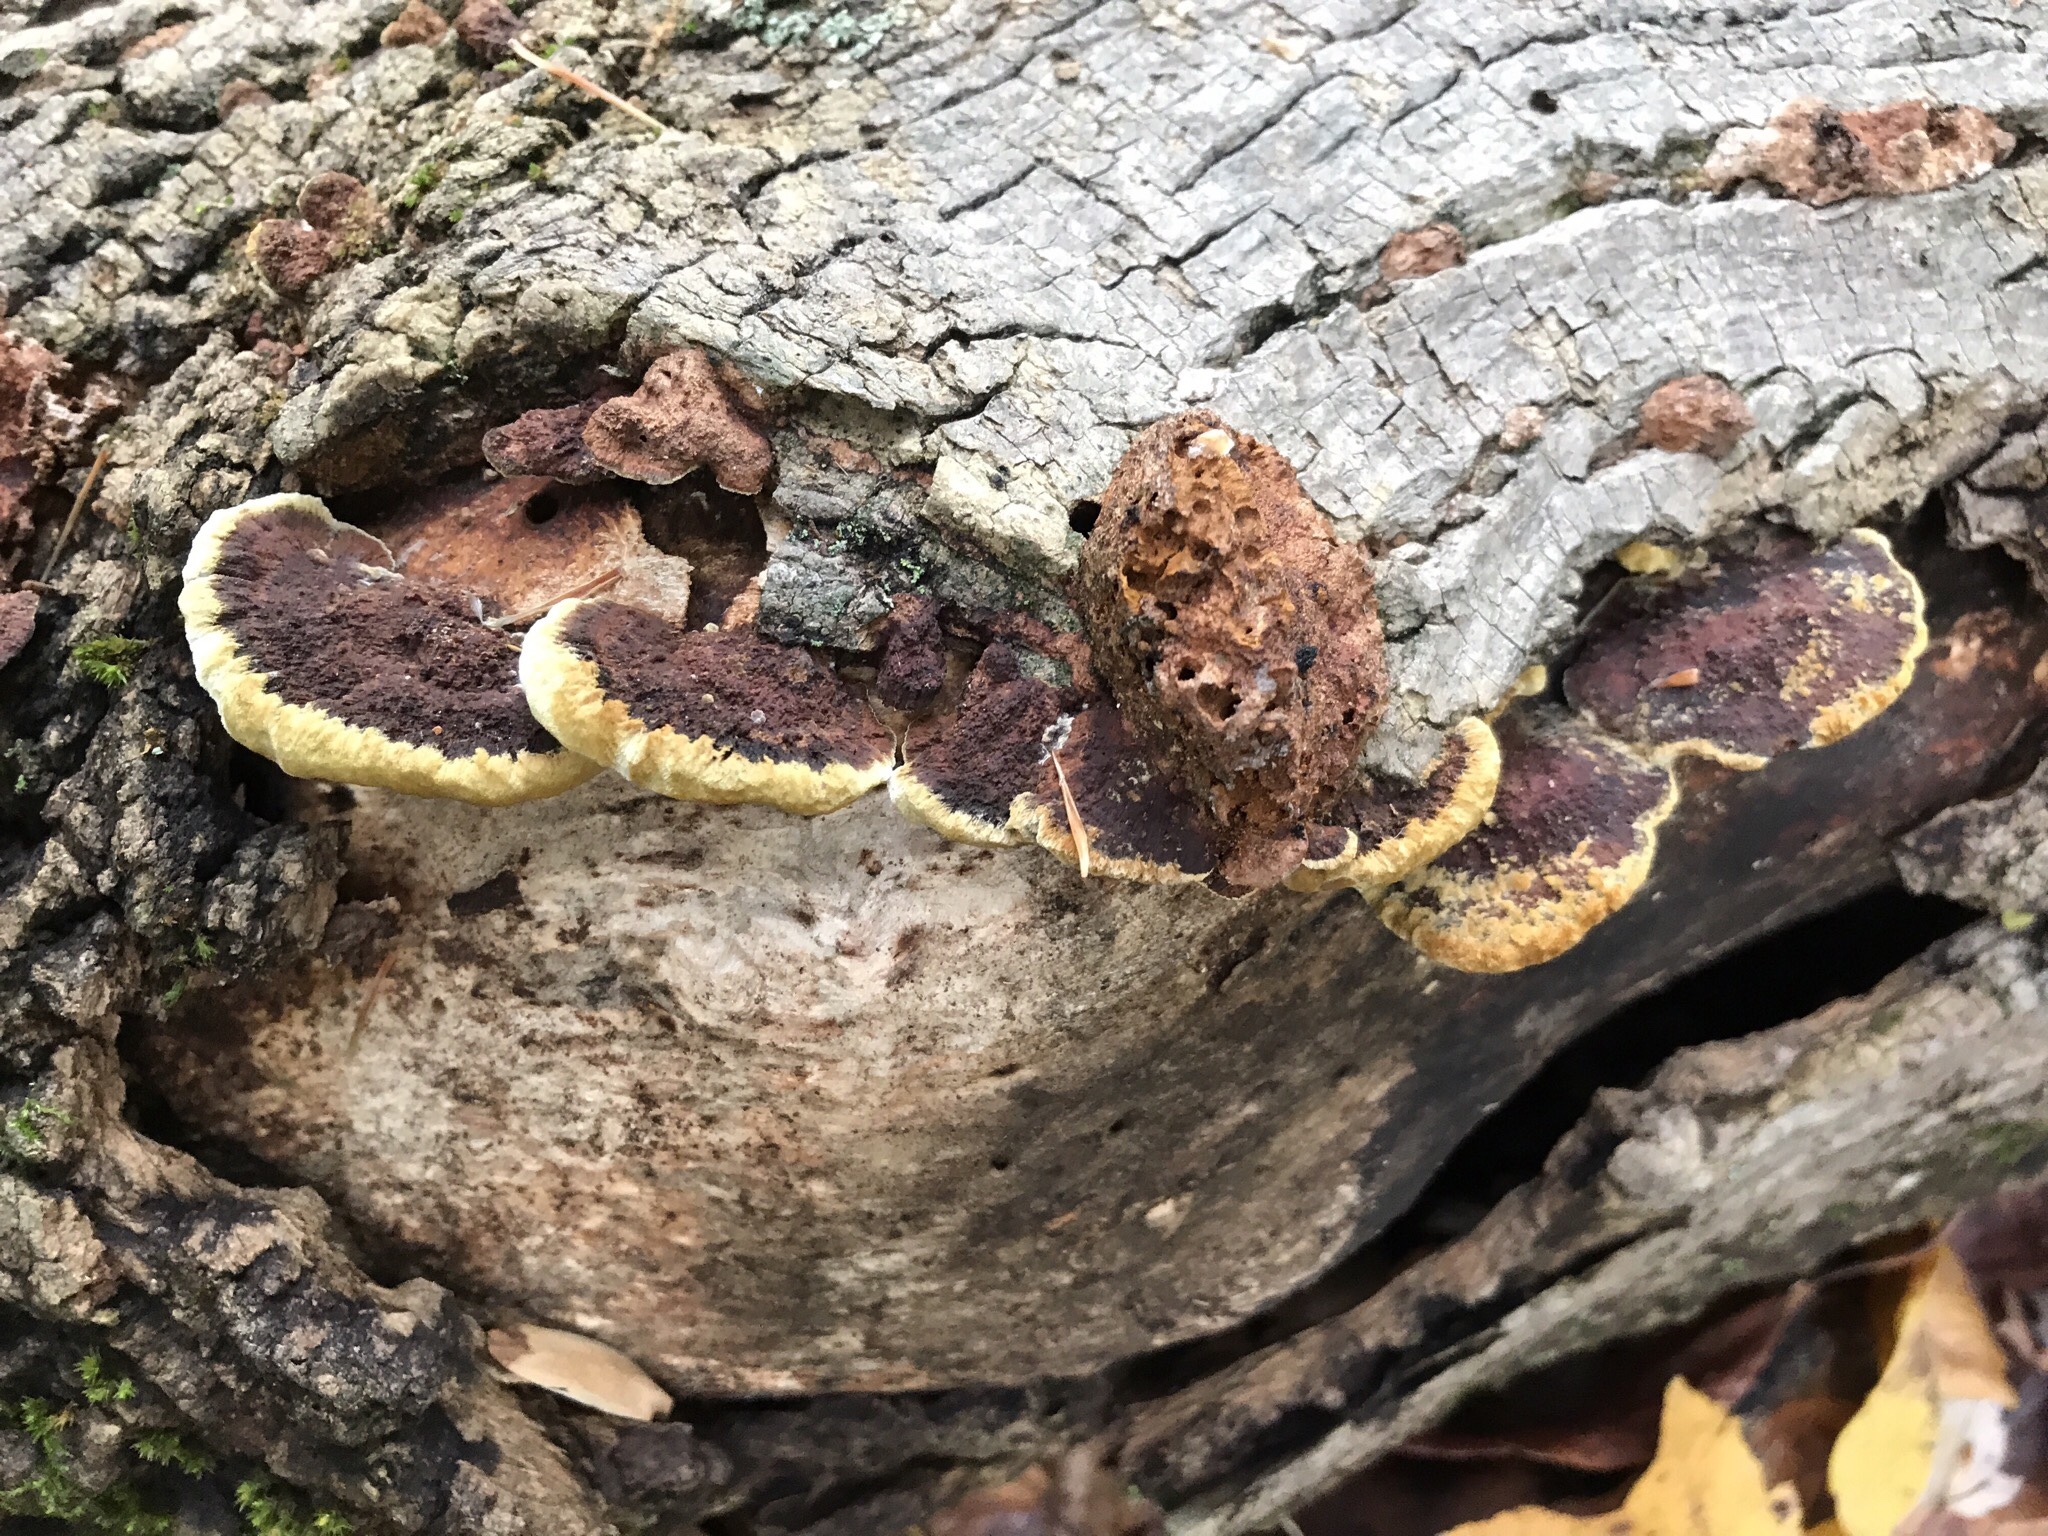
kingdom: Fungi
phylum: Basidiomycota
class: Agaricomycetes
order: Hymenochaetales
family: Hymenochaetaceae
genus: Phellinus
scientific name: Phellinus gilvus
